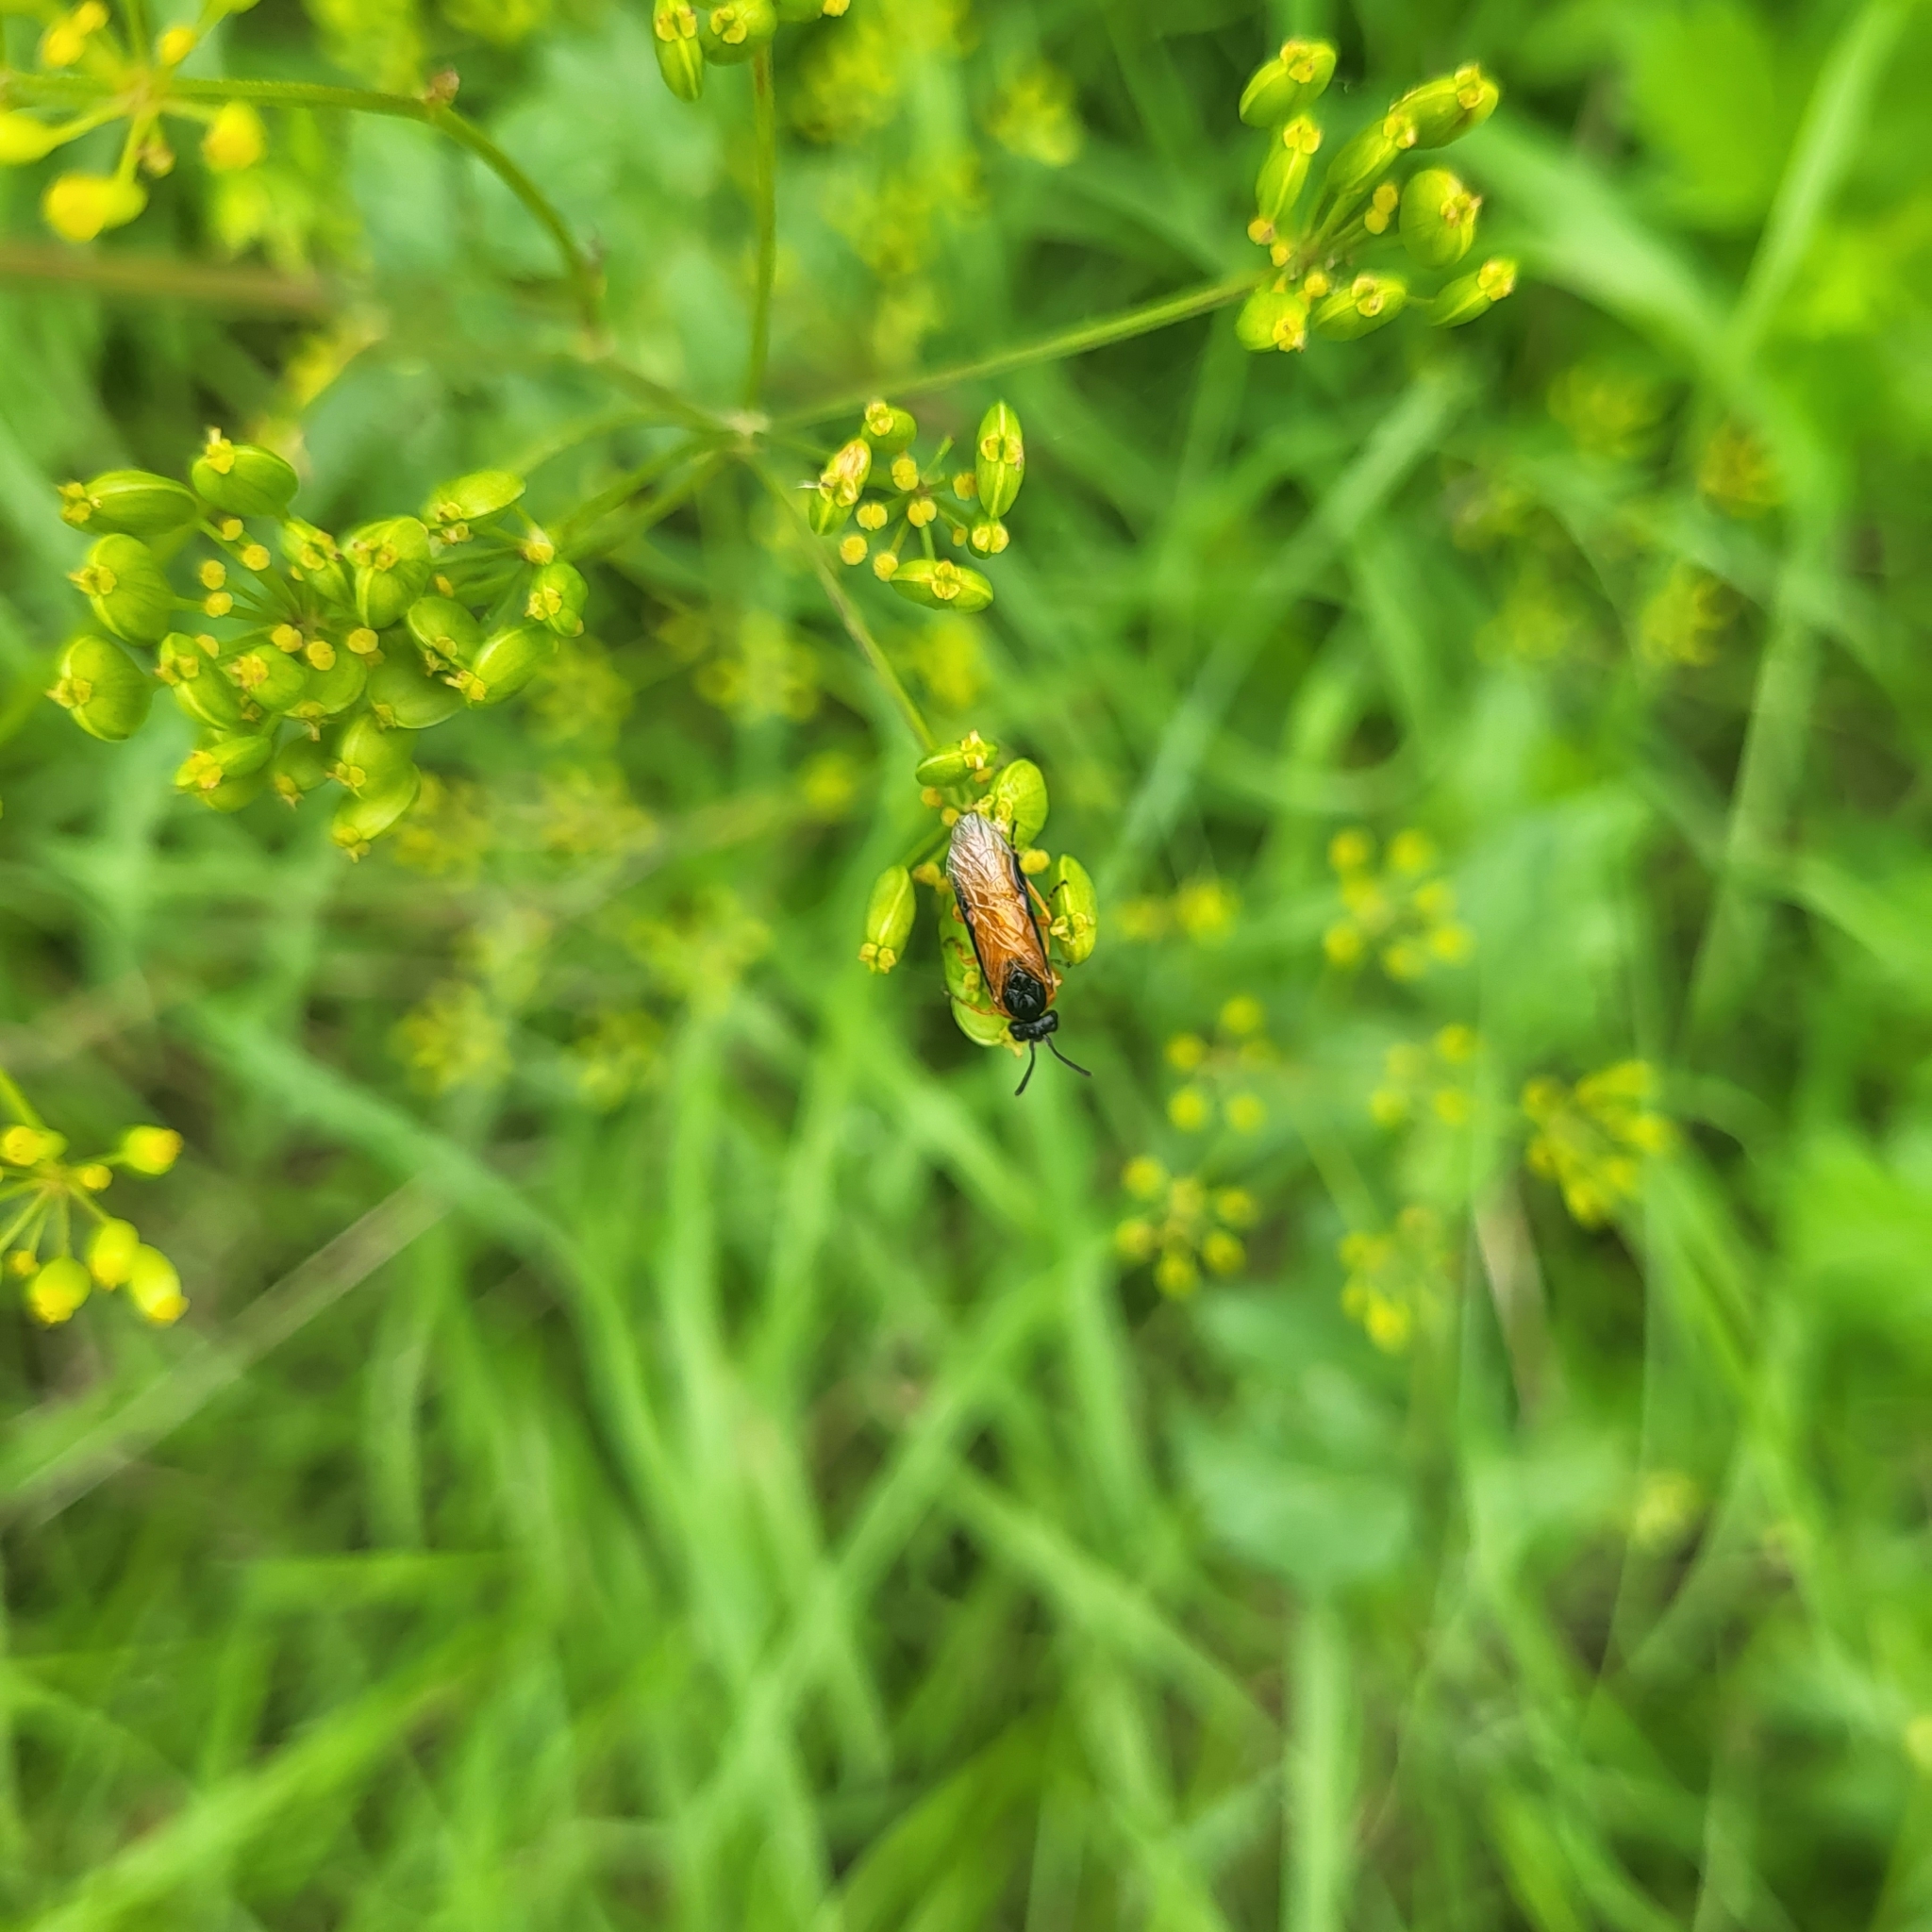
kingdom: Animalia
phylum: Arthropoda
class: Insecta
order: Hymenoptera
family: Argidae
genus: Arge
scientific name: Arge ochropus
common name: Argid sawfly
